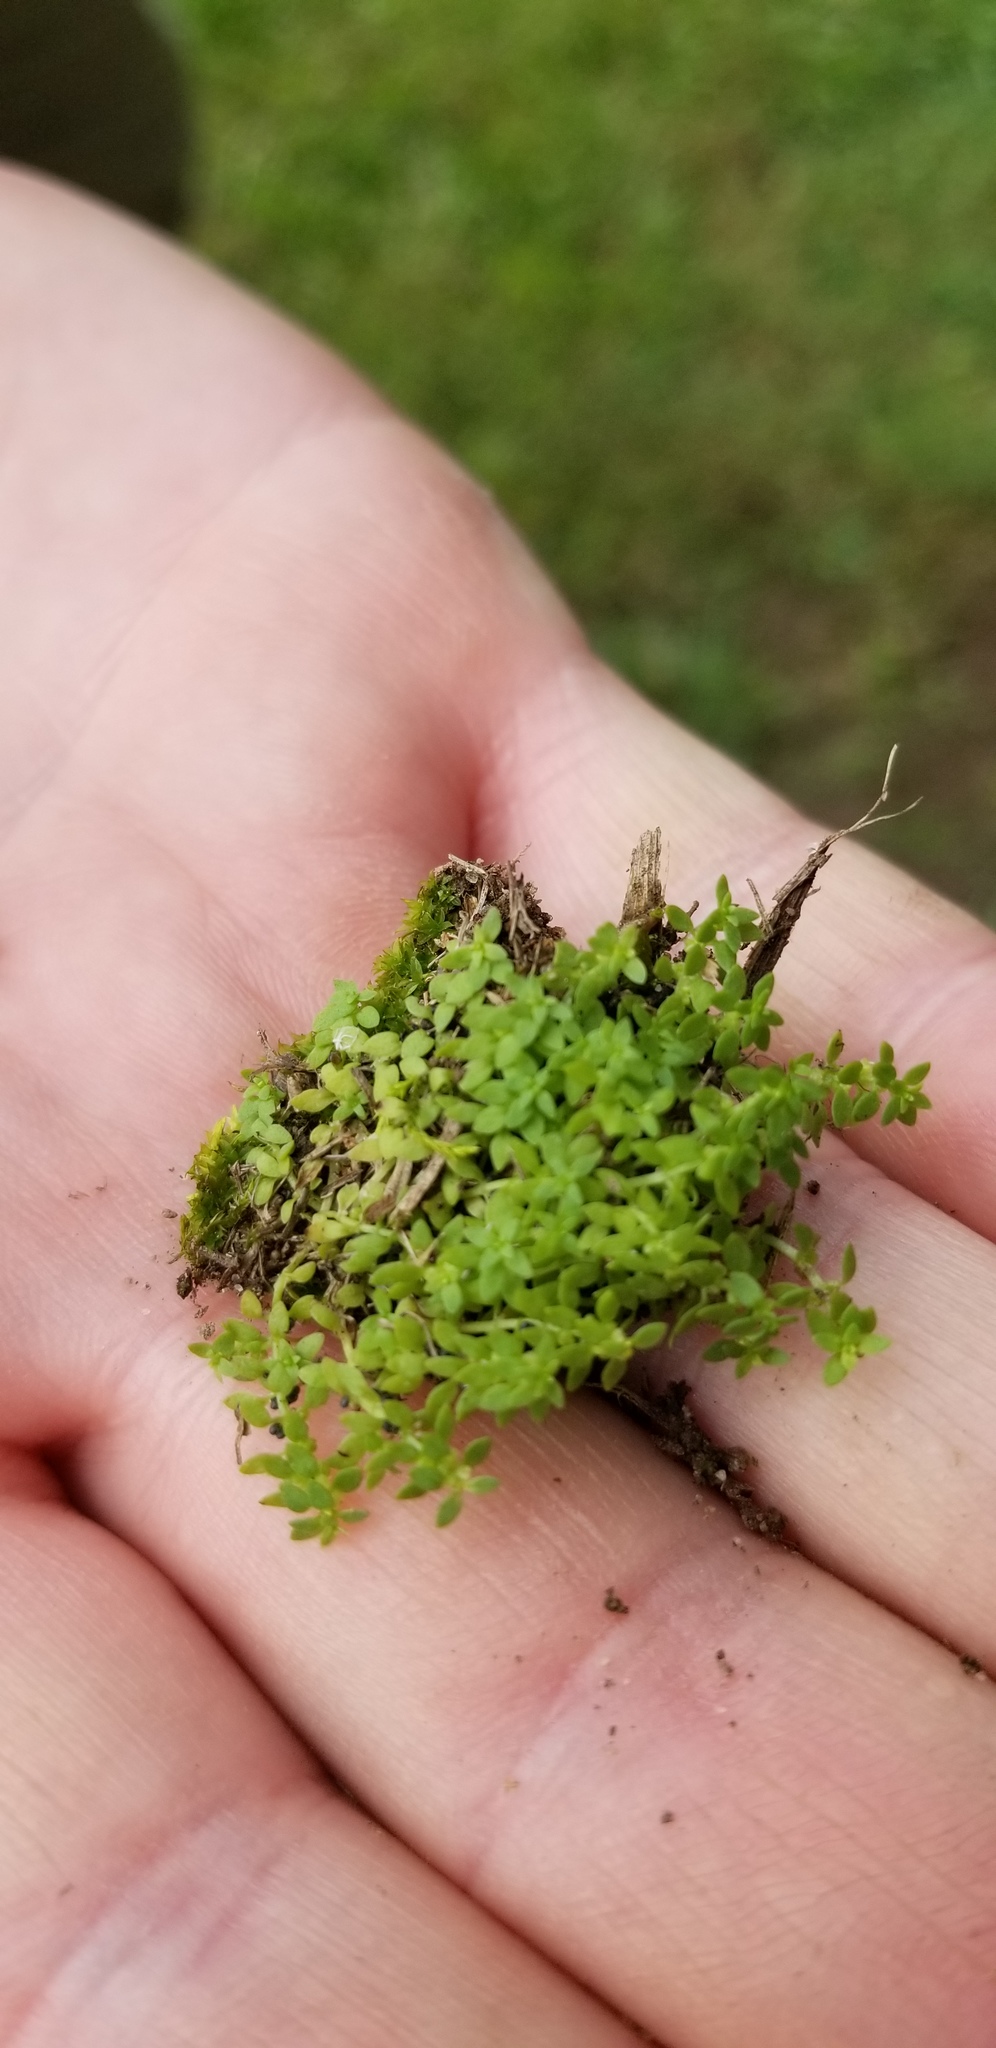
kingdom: Plantae
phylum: Tracheophyta
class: Magnoliopsida
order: Lamiales
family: Plantaginaceae
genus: Callitriche
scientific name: Callitriche peploides
